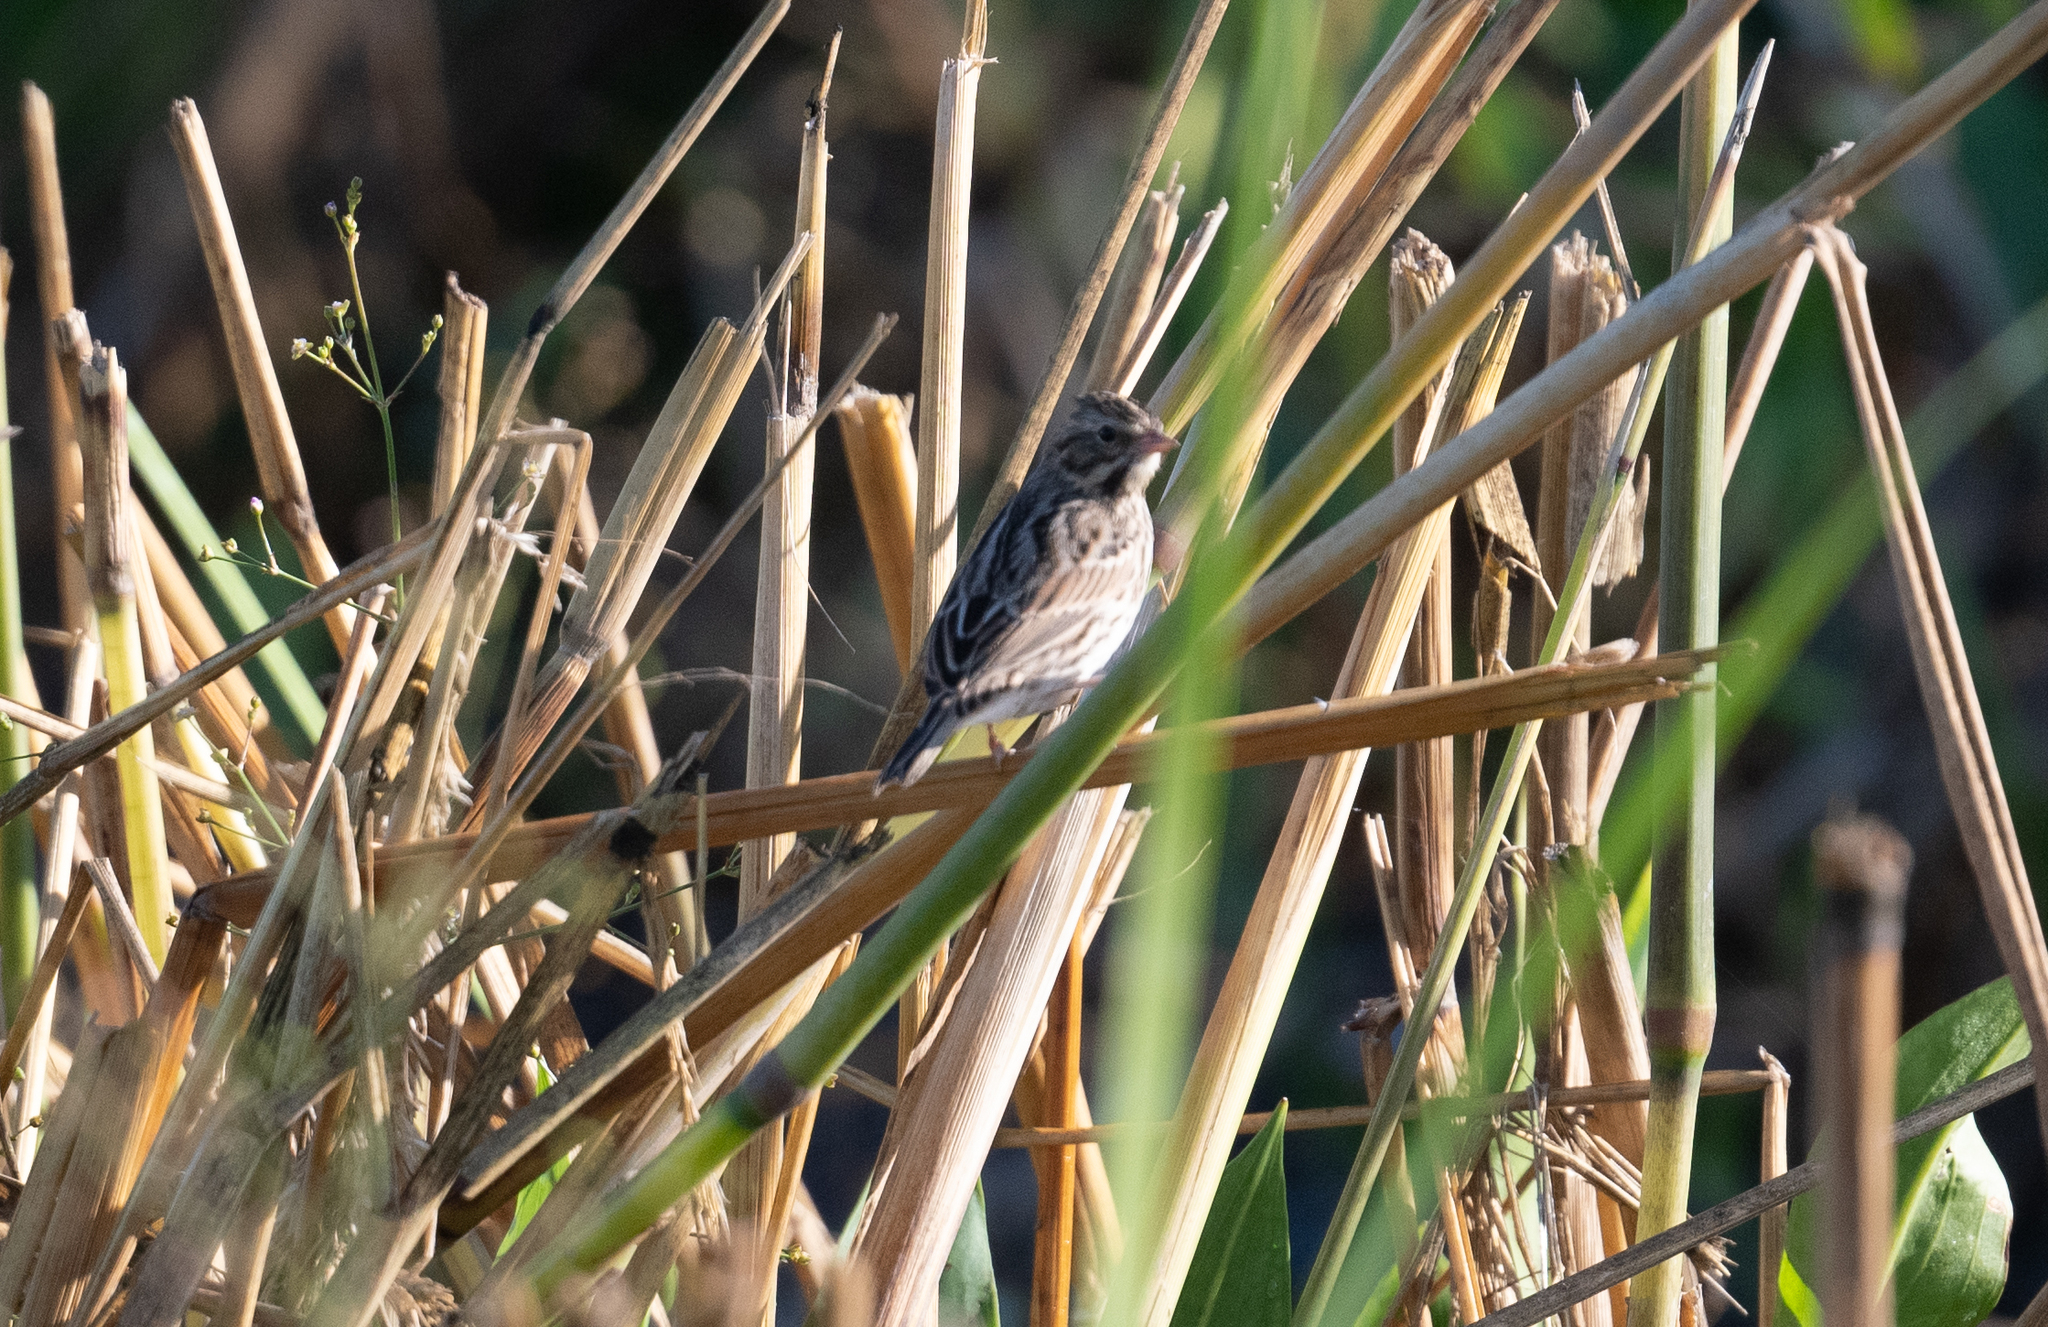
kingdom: Animalia
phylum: Chordata
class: Aves
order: Passeriformes
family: Passerellidae
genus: Passerculus
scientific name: Passerculus sandwichensis
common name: Savannah sparrow
